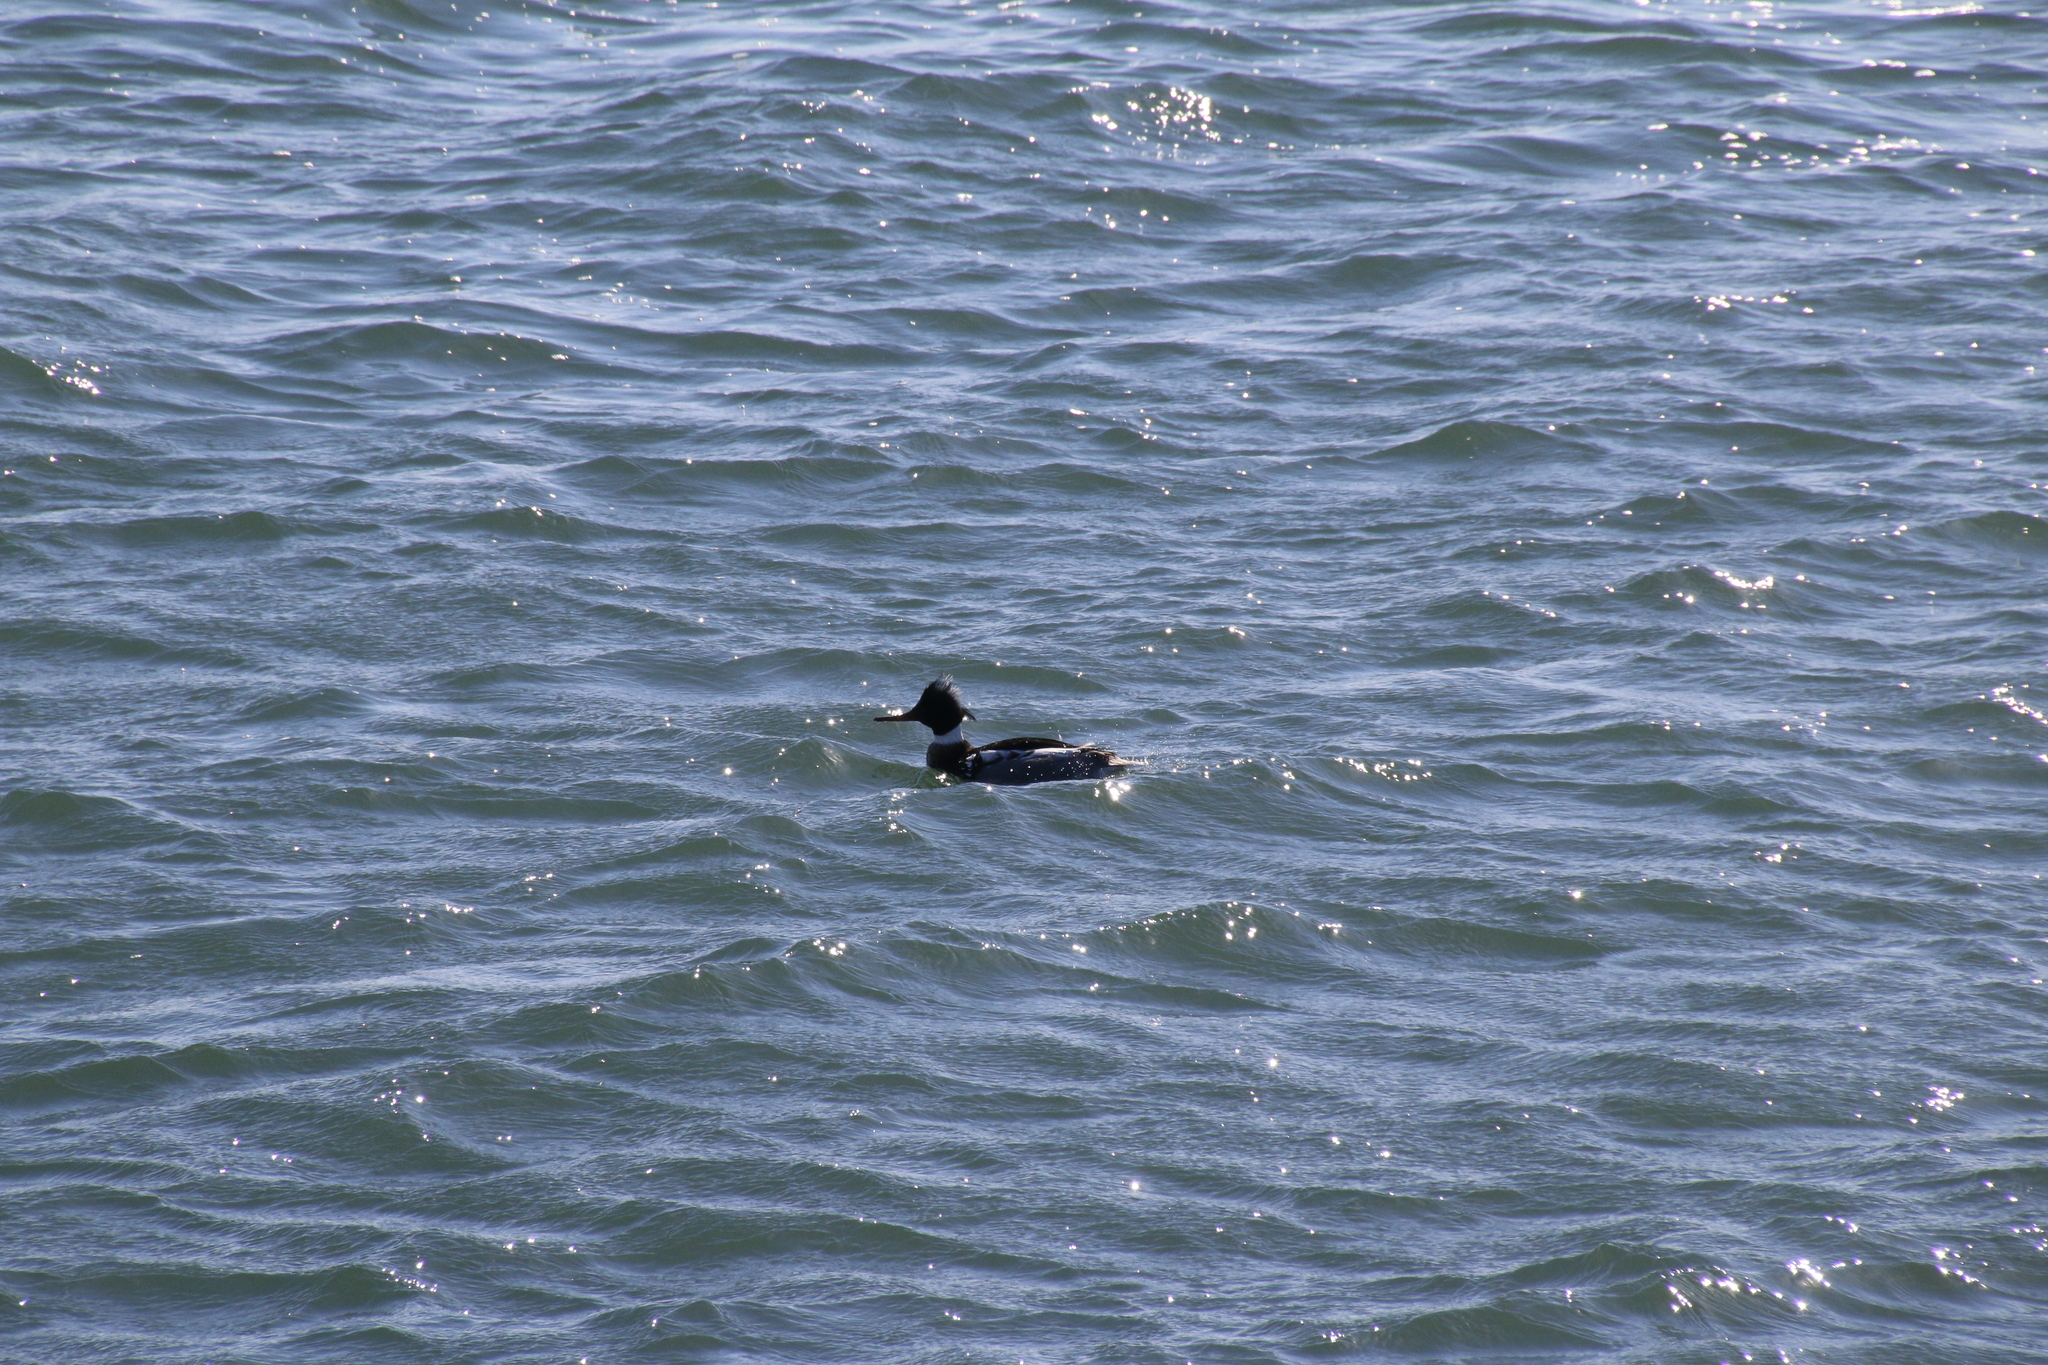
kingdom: Animalia
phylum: Chordata
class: Aves
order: Anseriformes
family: Anatidae
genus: Mergus
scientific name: Mergus serrator
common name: Red-breasted merganser
